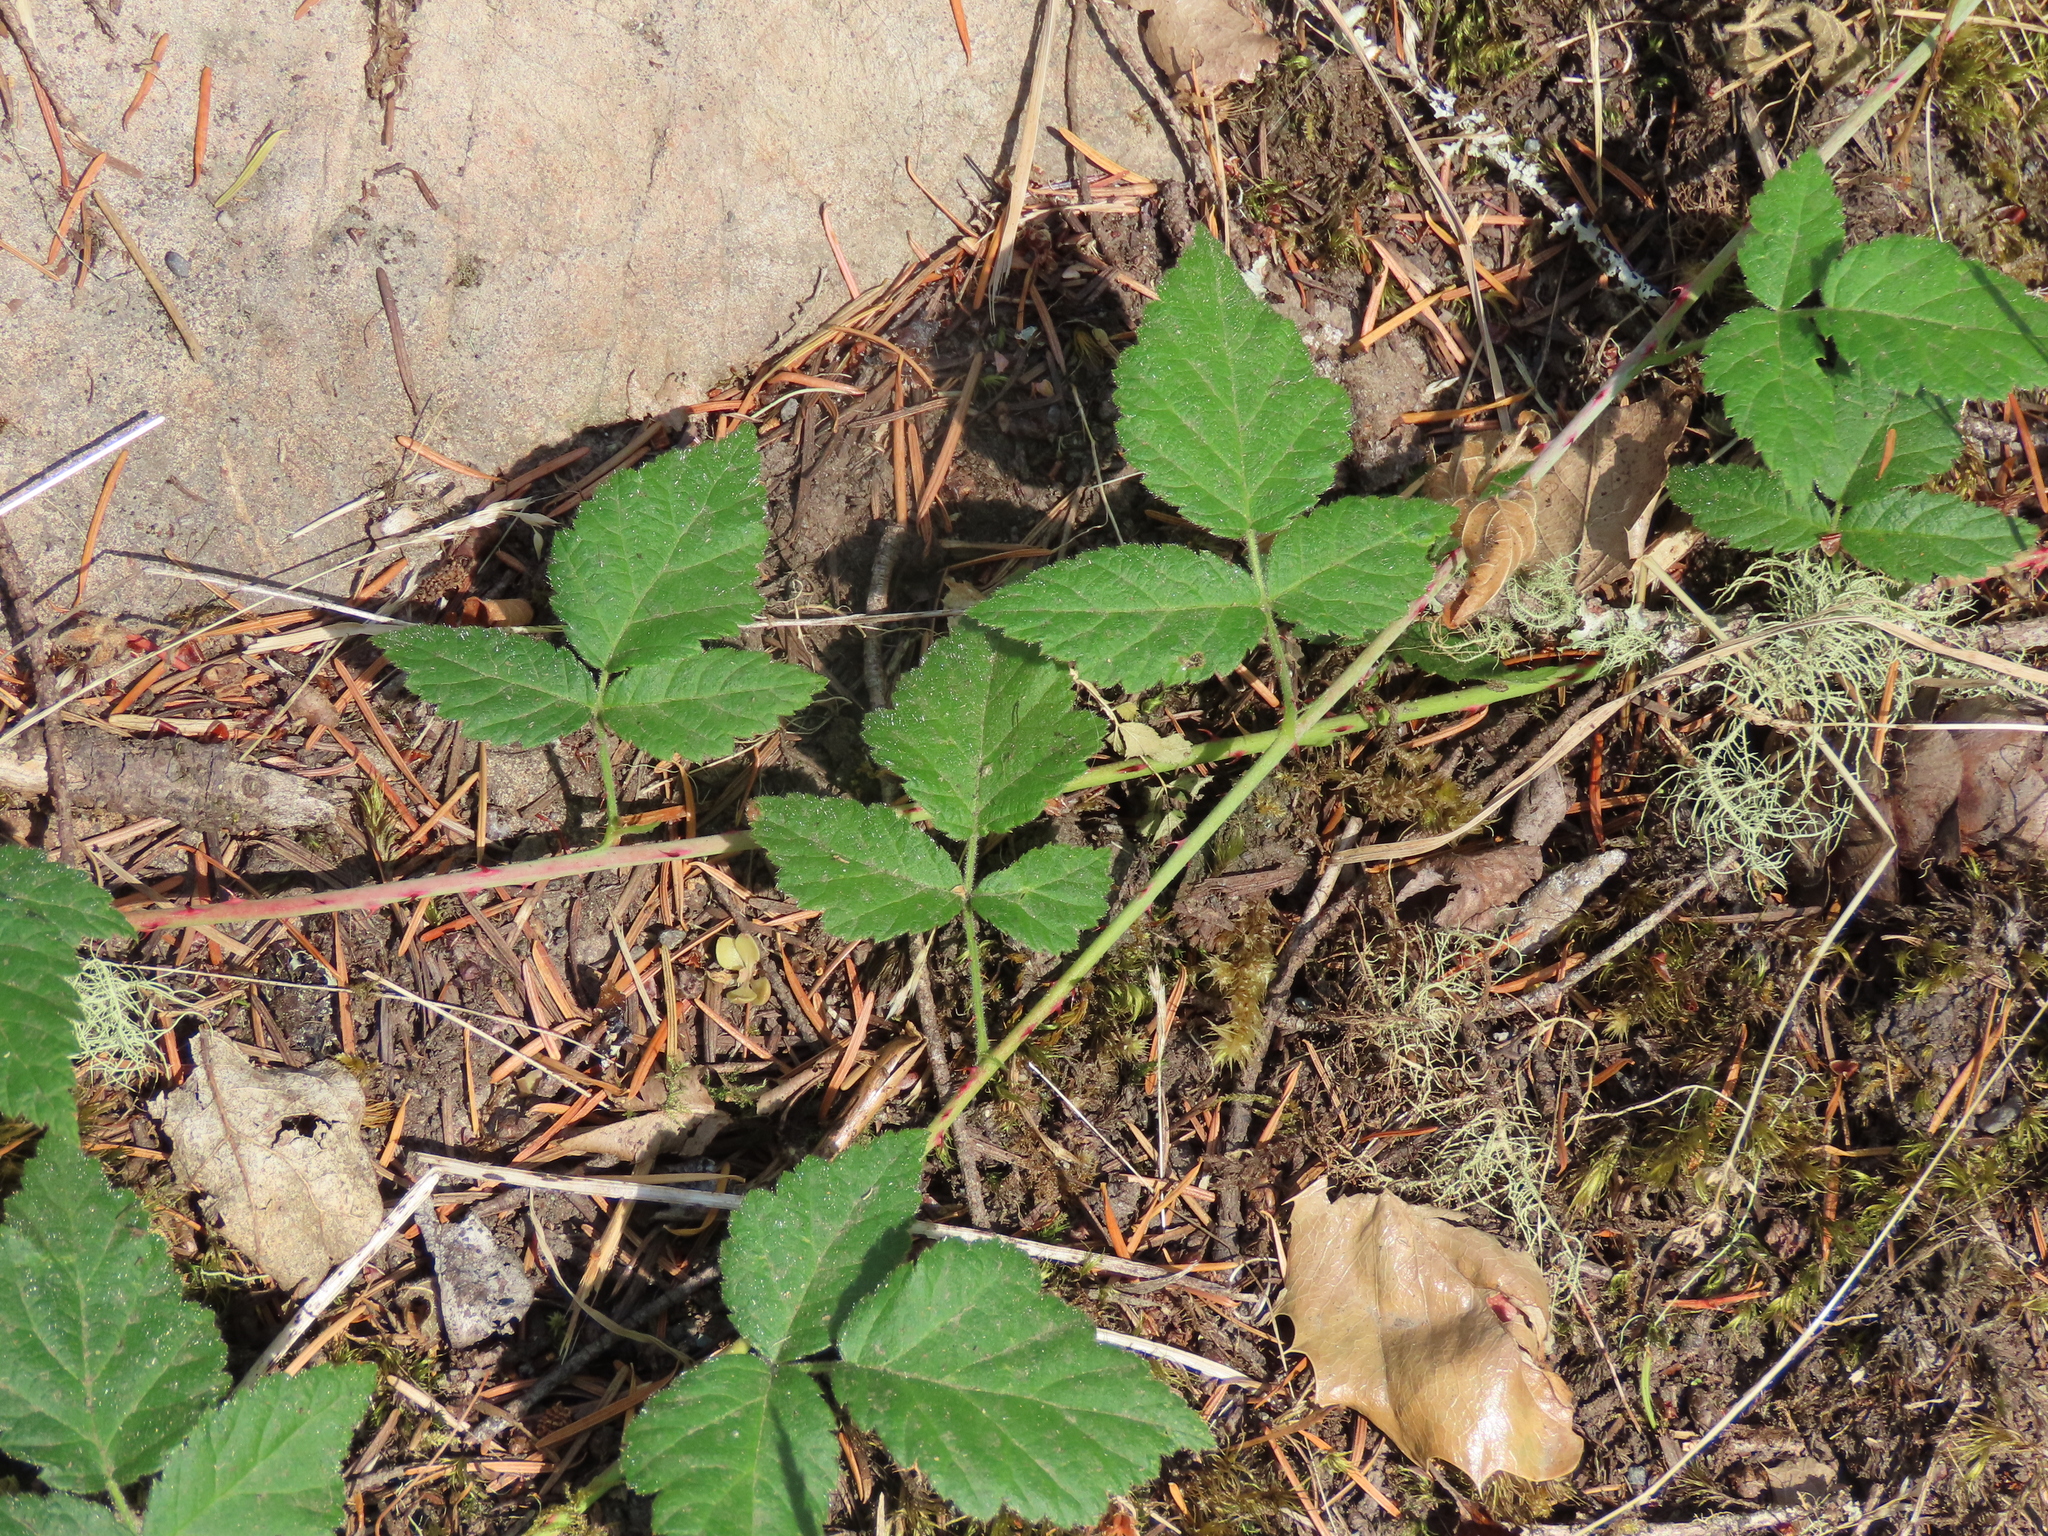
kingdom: Plantae
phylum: Tracheophyta
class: Magnoliopsida
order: Rosales
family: Rosaceae
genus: Rubus
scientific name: Rubus ursinus
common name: Pacific blackberry
